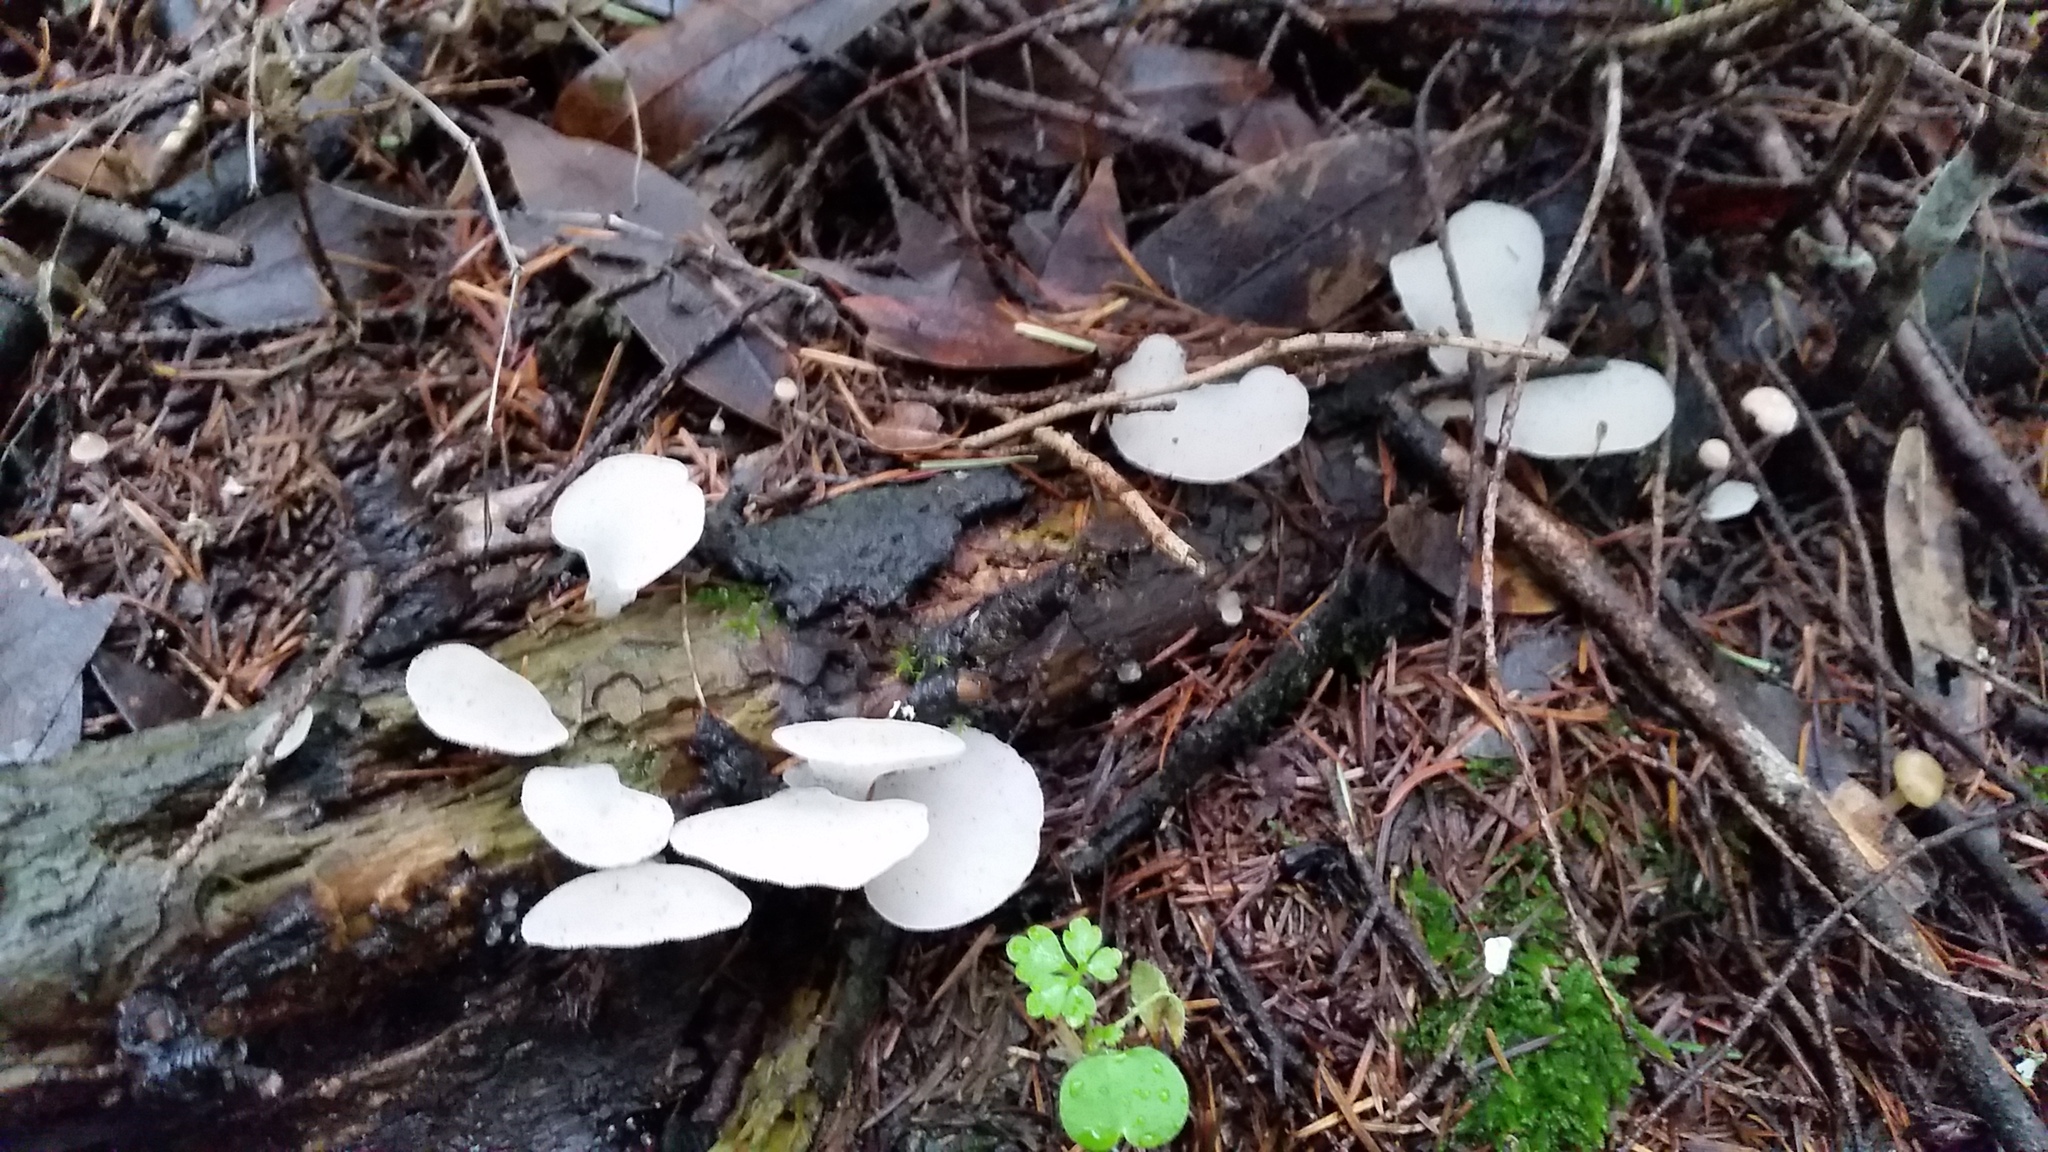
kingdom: Fungi
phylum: Basidiomycota
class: Agaricomycetes
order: Auriculariales
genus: Pseudohydnum
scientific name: Pseudohydnum gelatinosum
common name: Jelly tongue
